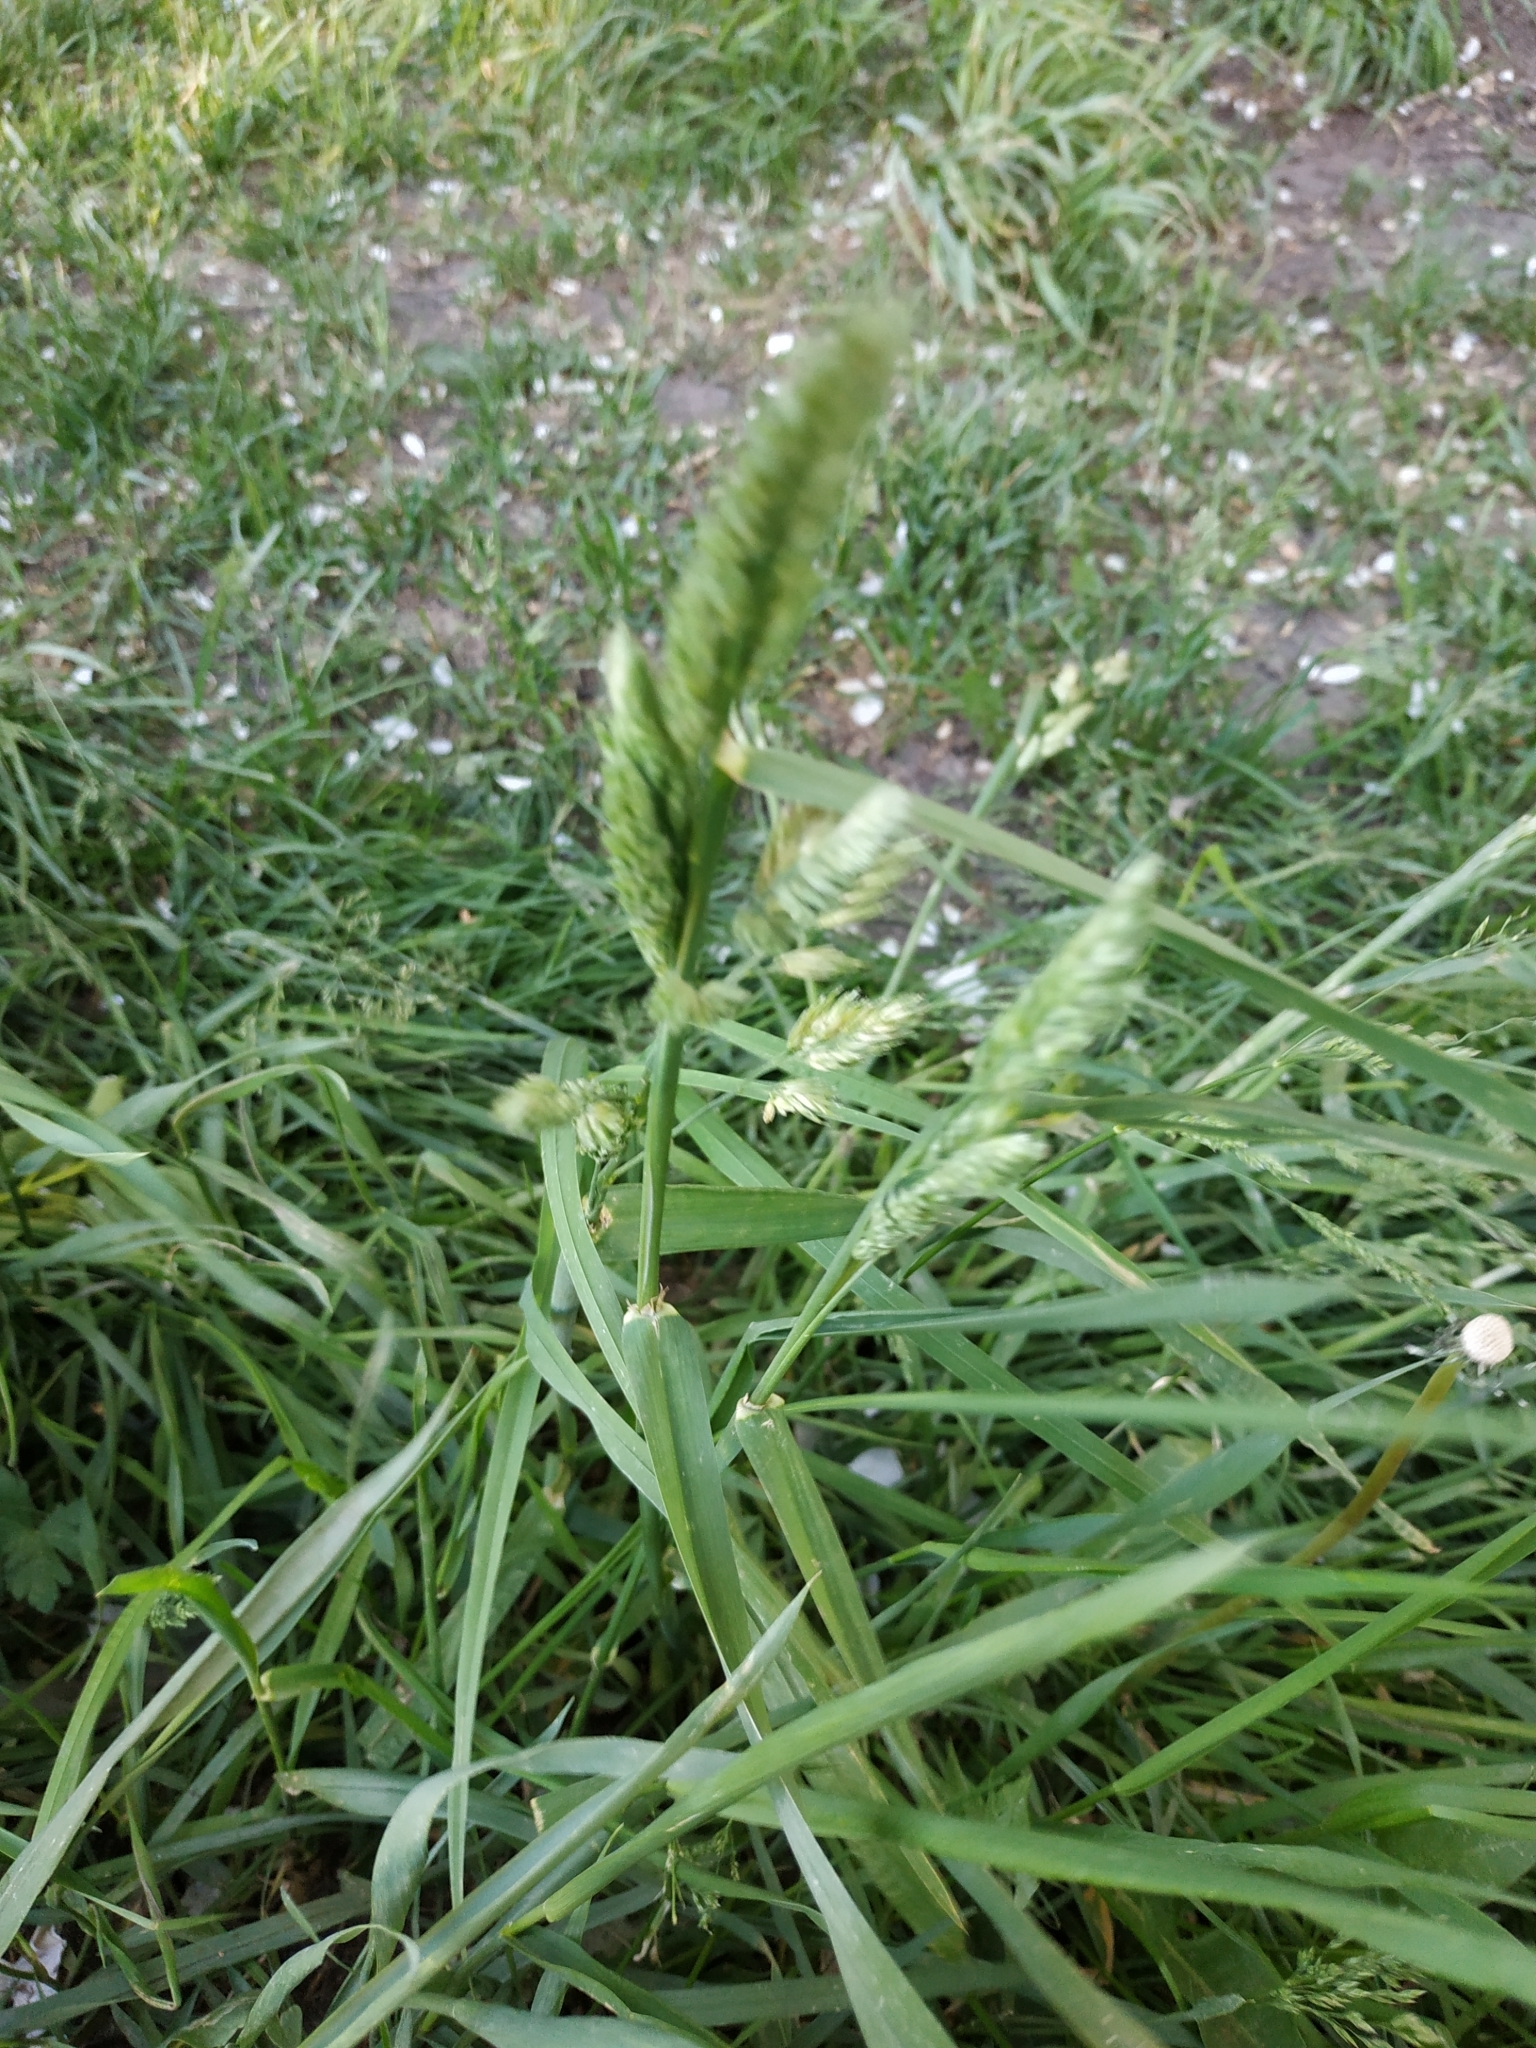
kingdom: Plantae
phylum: Tracheophyta
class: Liliopsida
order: Poales
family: Poaceae
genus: Dactylis
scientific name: Dactylis glomerata
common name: Orchardgrass
